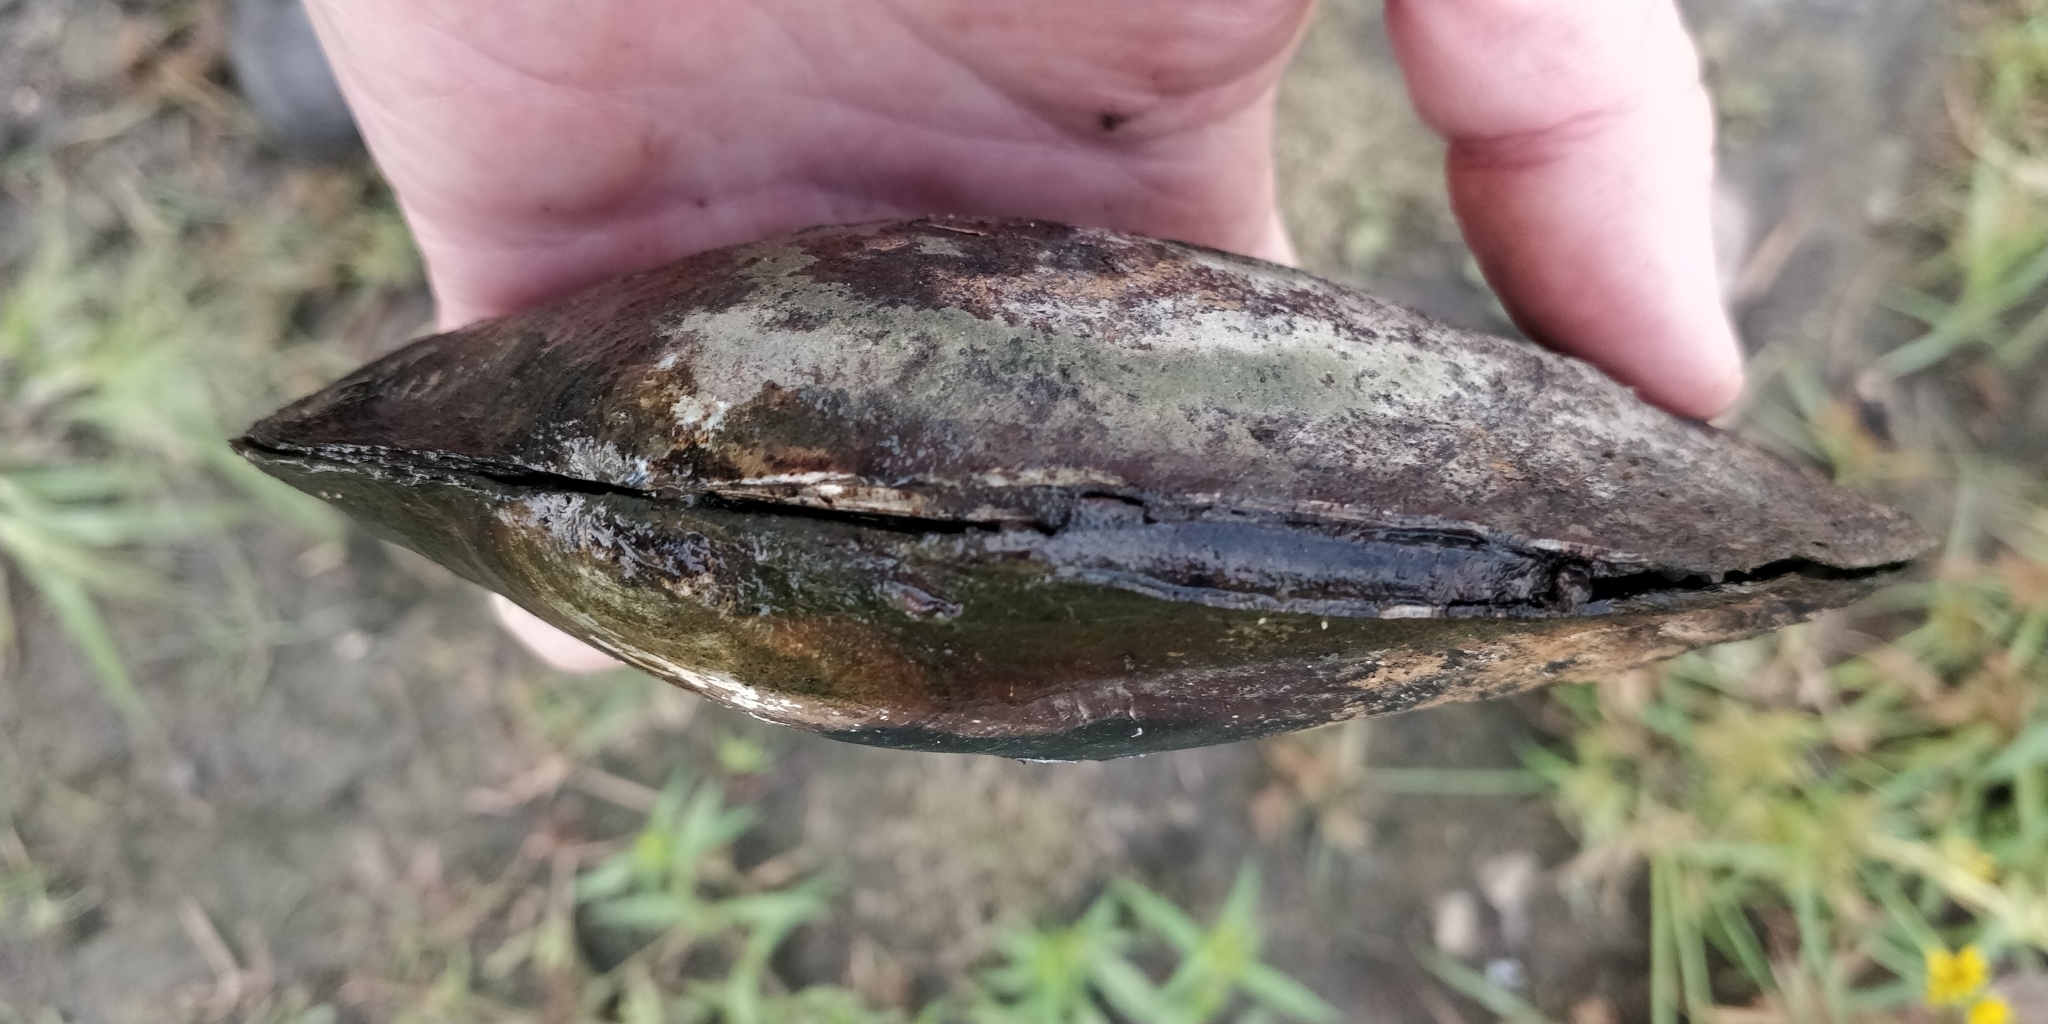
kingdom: Animalia
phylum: Mollusca
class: Bivalvia
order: Unionida
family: Unionidae
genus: Lasmigona
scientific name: Lasmigona complanata
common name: White heelsplitter
